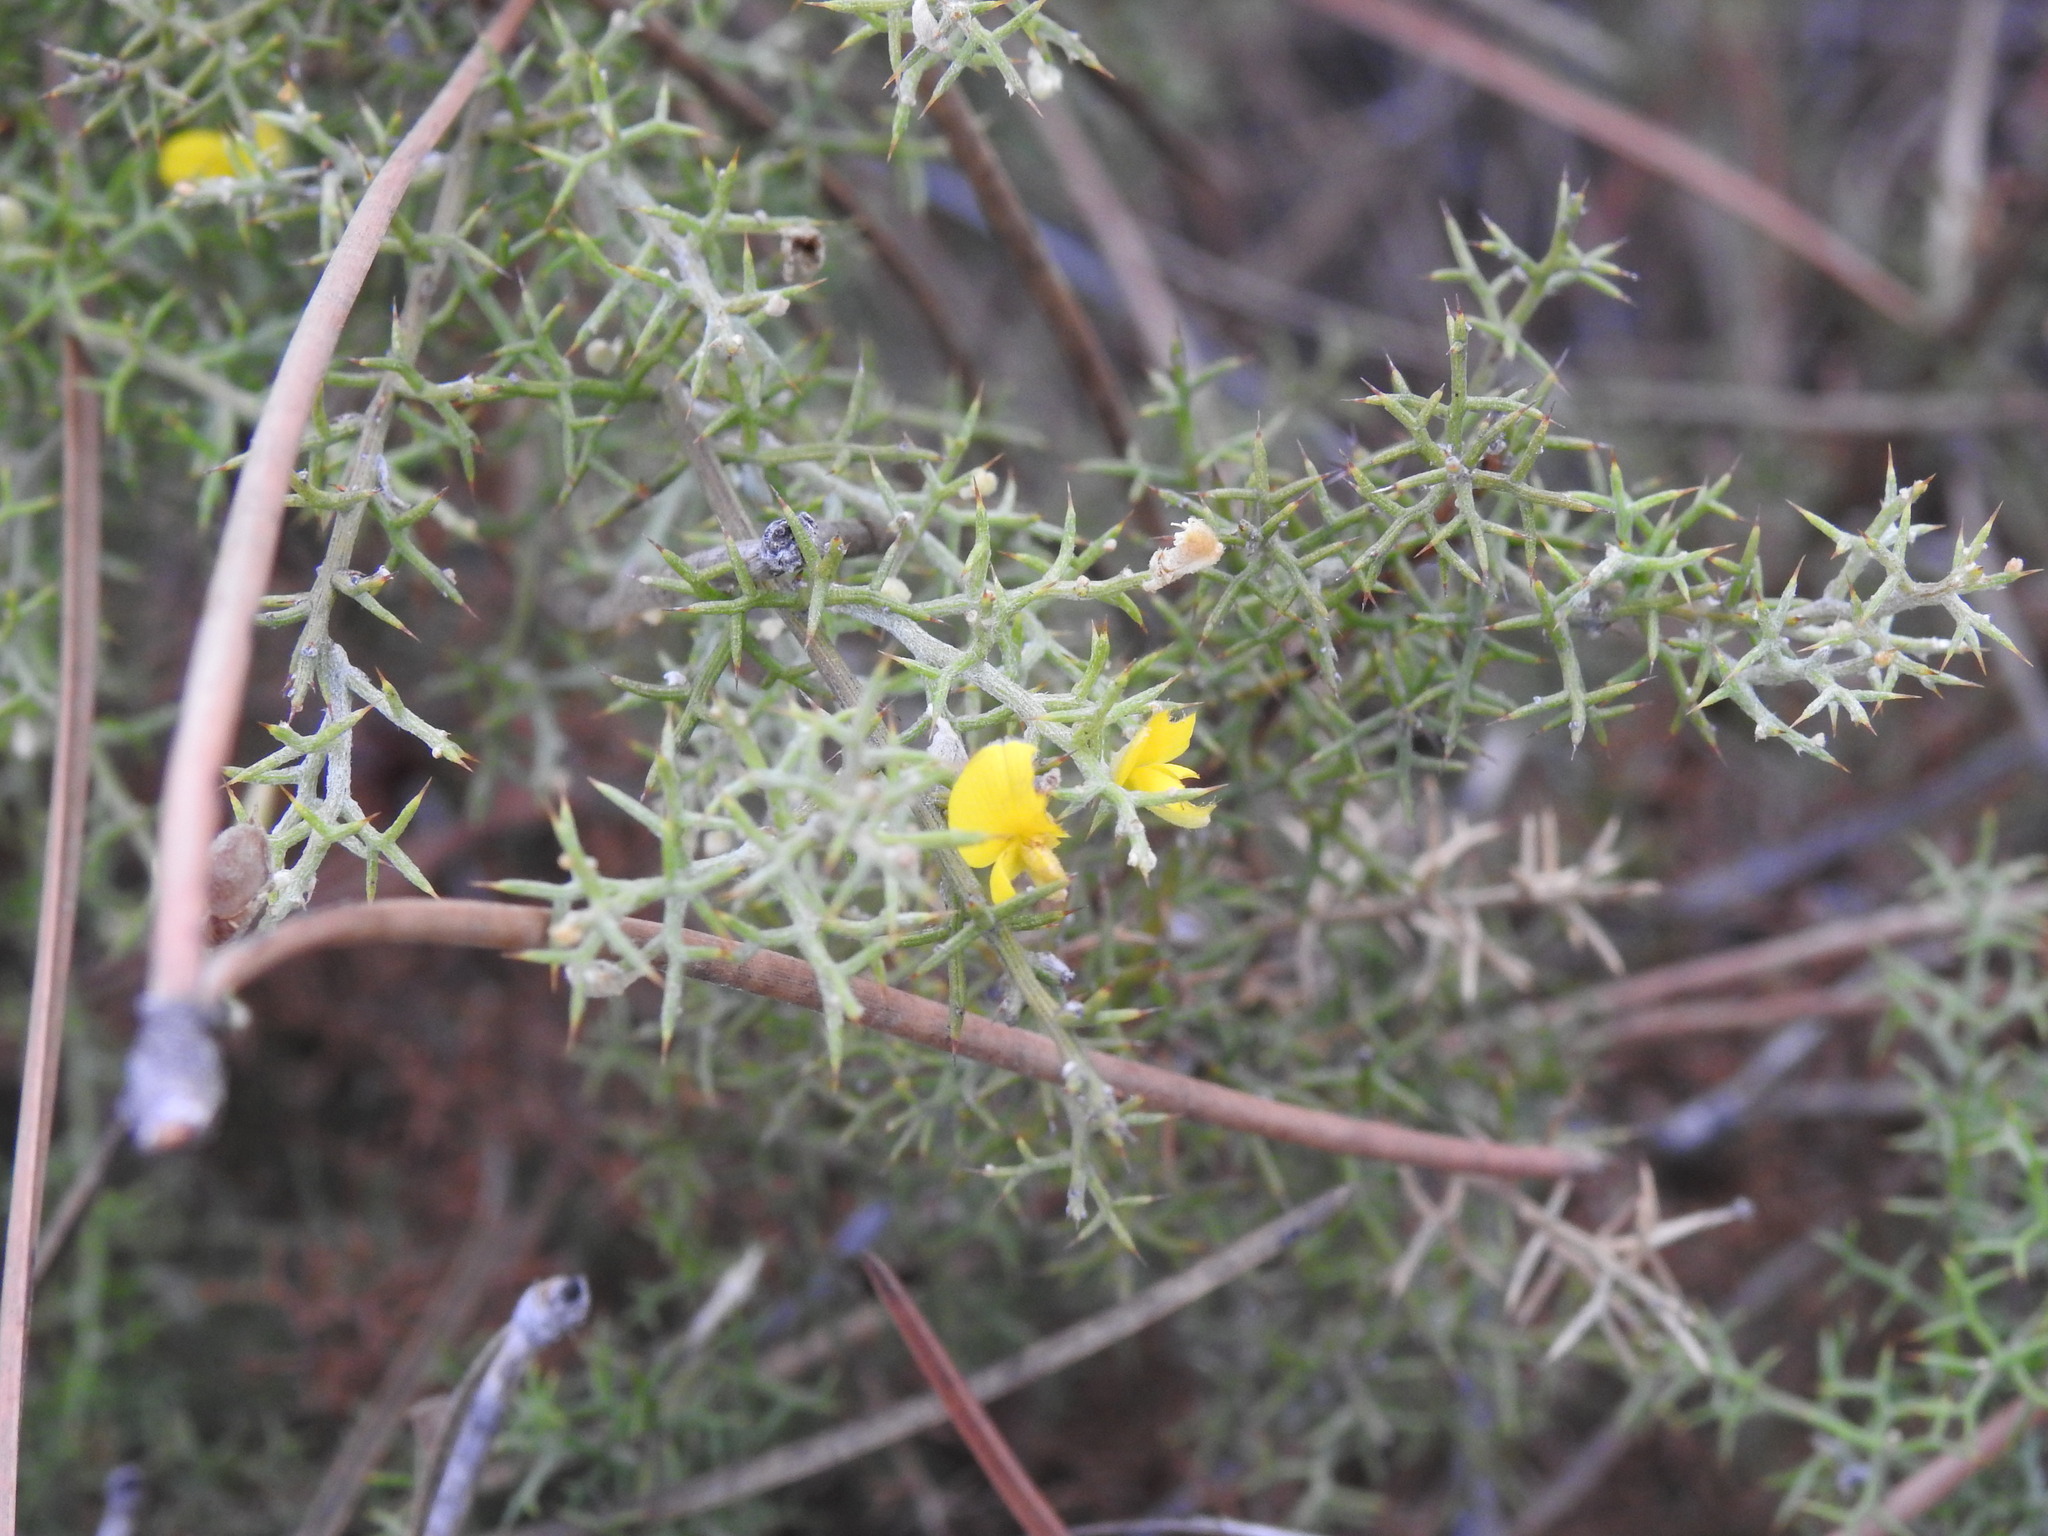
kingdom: Plantae
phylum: Tracheophyta
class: Magnoliopsida
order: Fabales
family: Fabaceae
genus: Stauracanthus
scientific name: Stauracanthus boivinii
